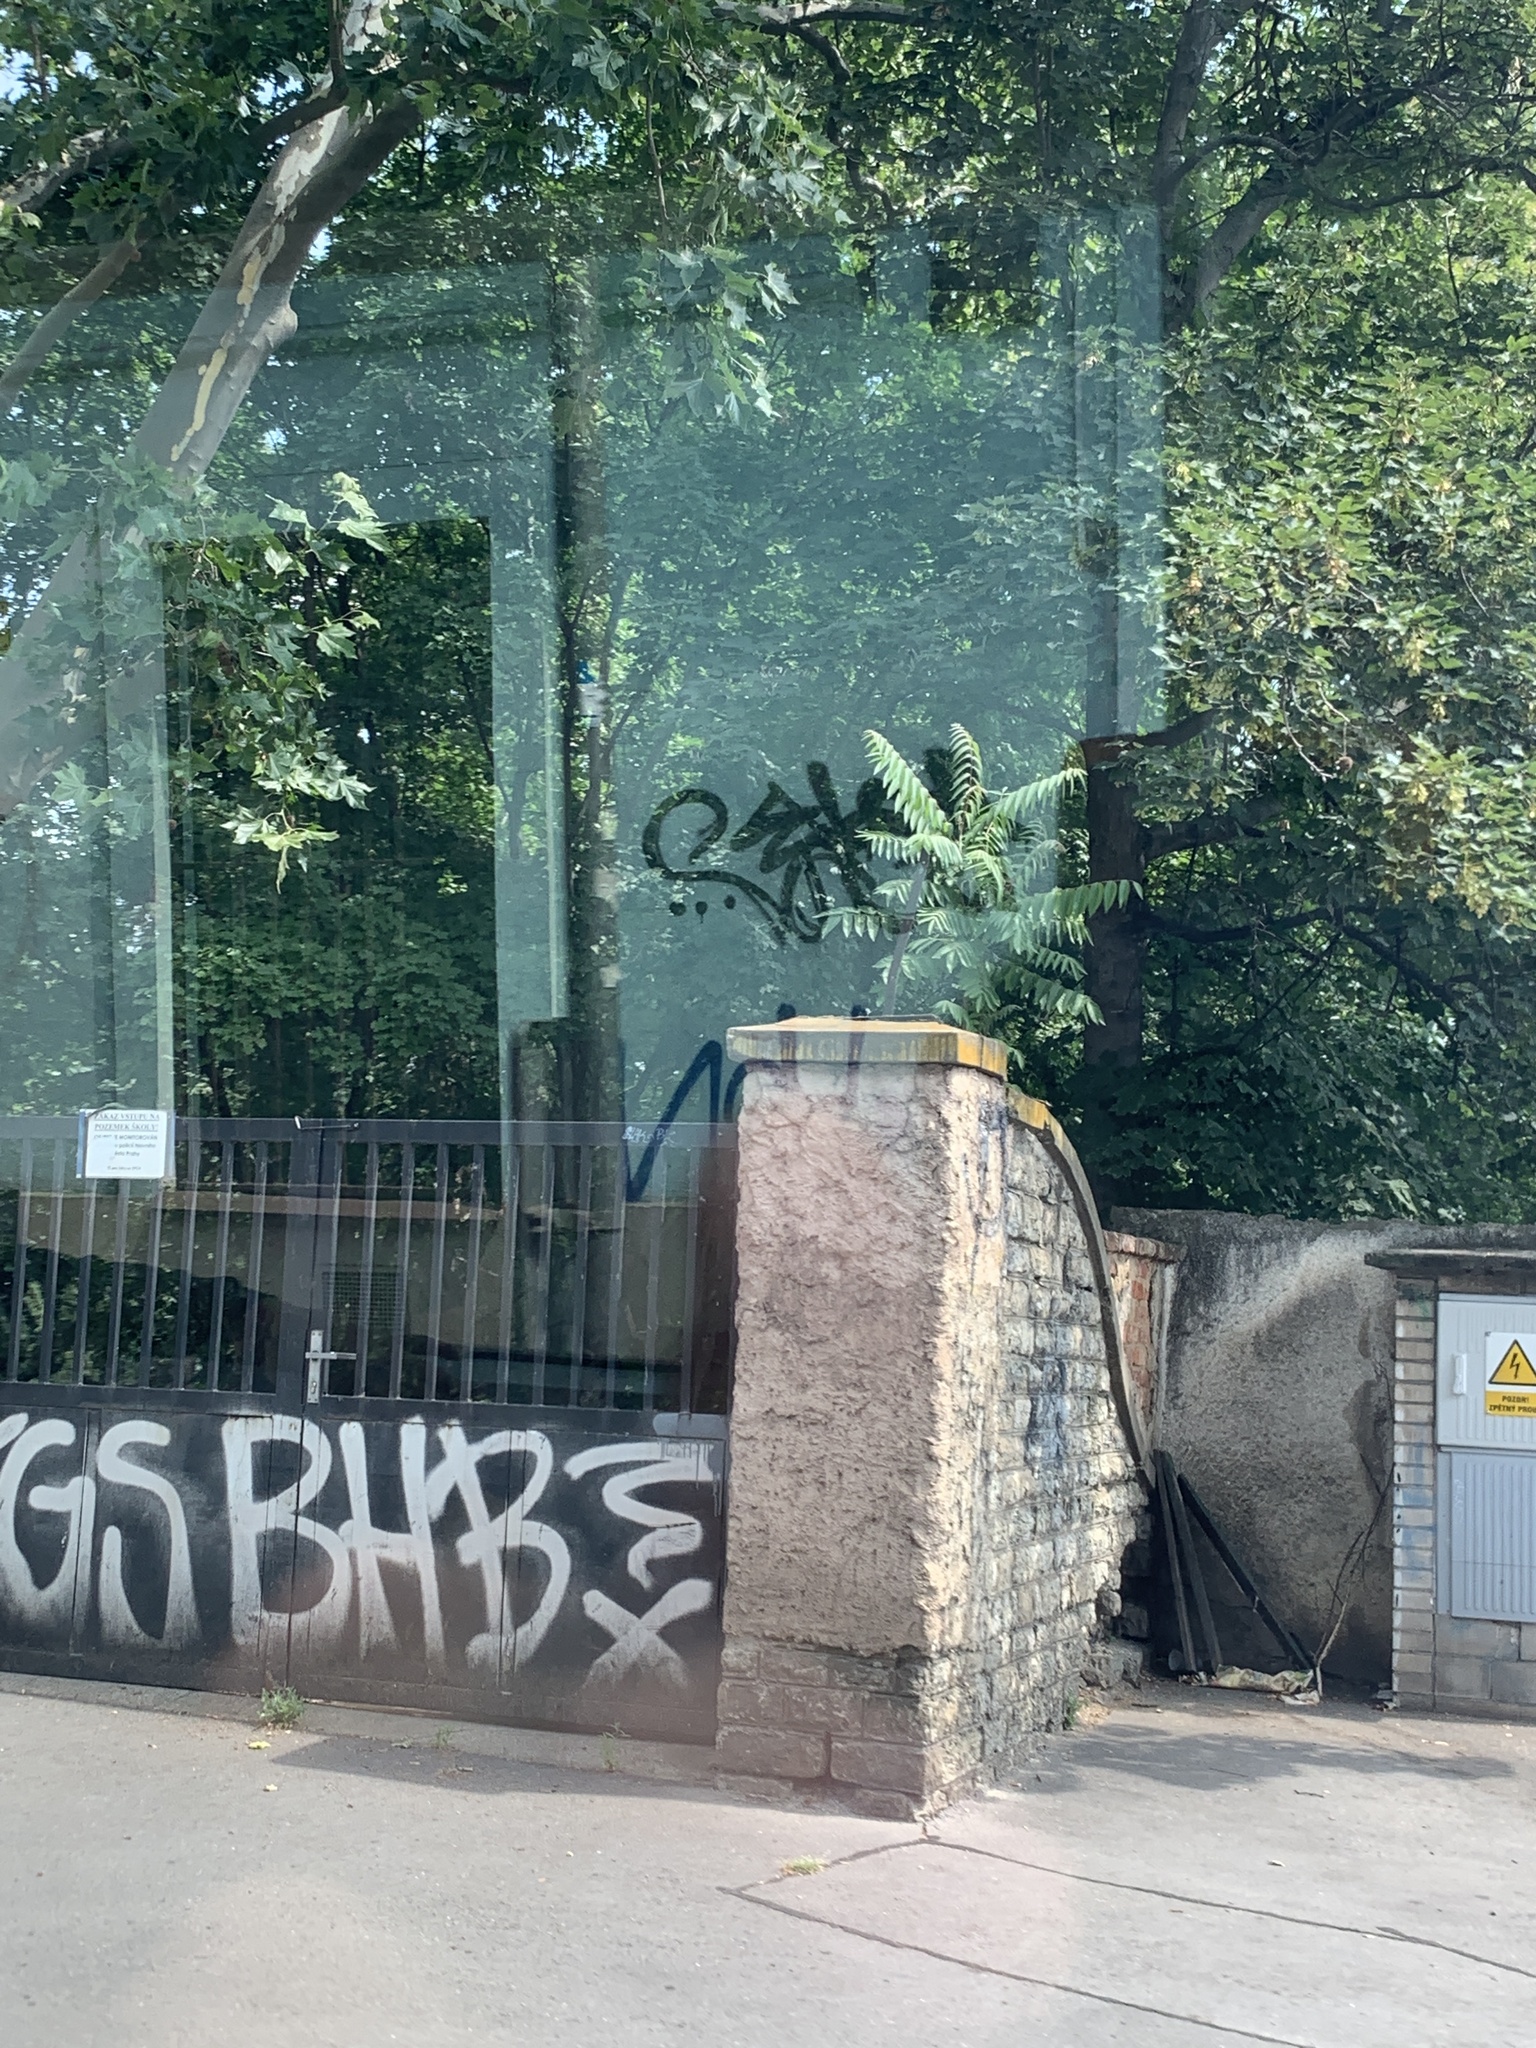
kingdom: Plantae
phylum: Tracheophyta
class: Magnoliopsida
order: Sapindales
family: Simaroubaceae
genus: Ailanthus
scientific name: Ailanthus altissima
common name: Tree-of-heaven
